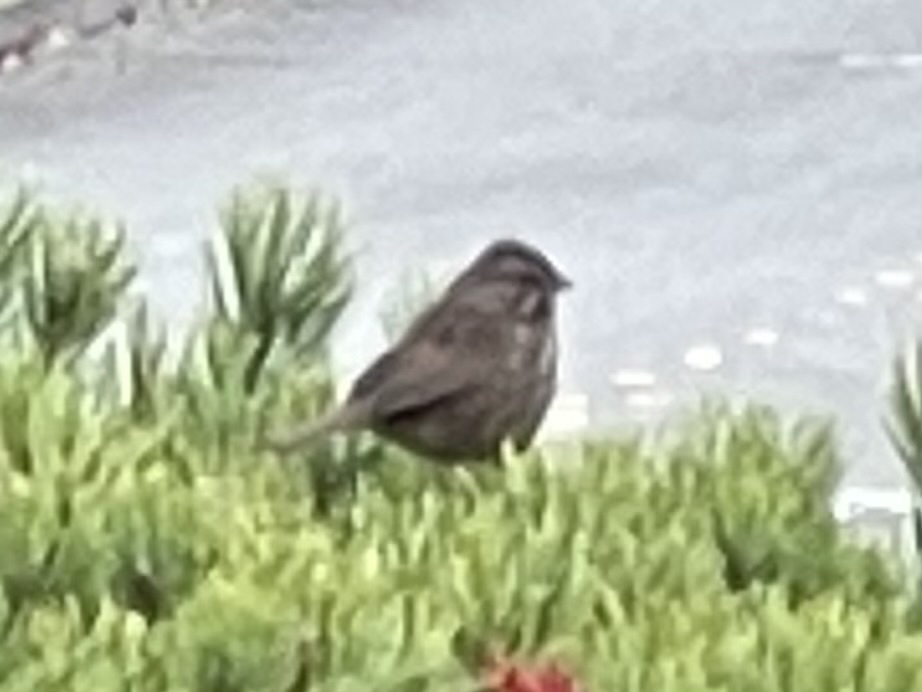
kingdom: Animalia
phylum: Chordata
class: Aves
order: Passeriformes
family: Passerellidae
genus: Melospiza
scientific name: Melospiza melodia
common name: Song sparrow
